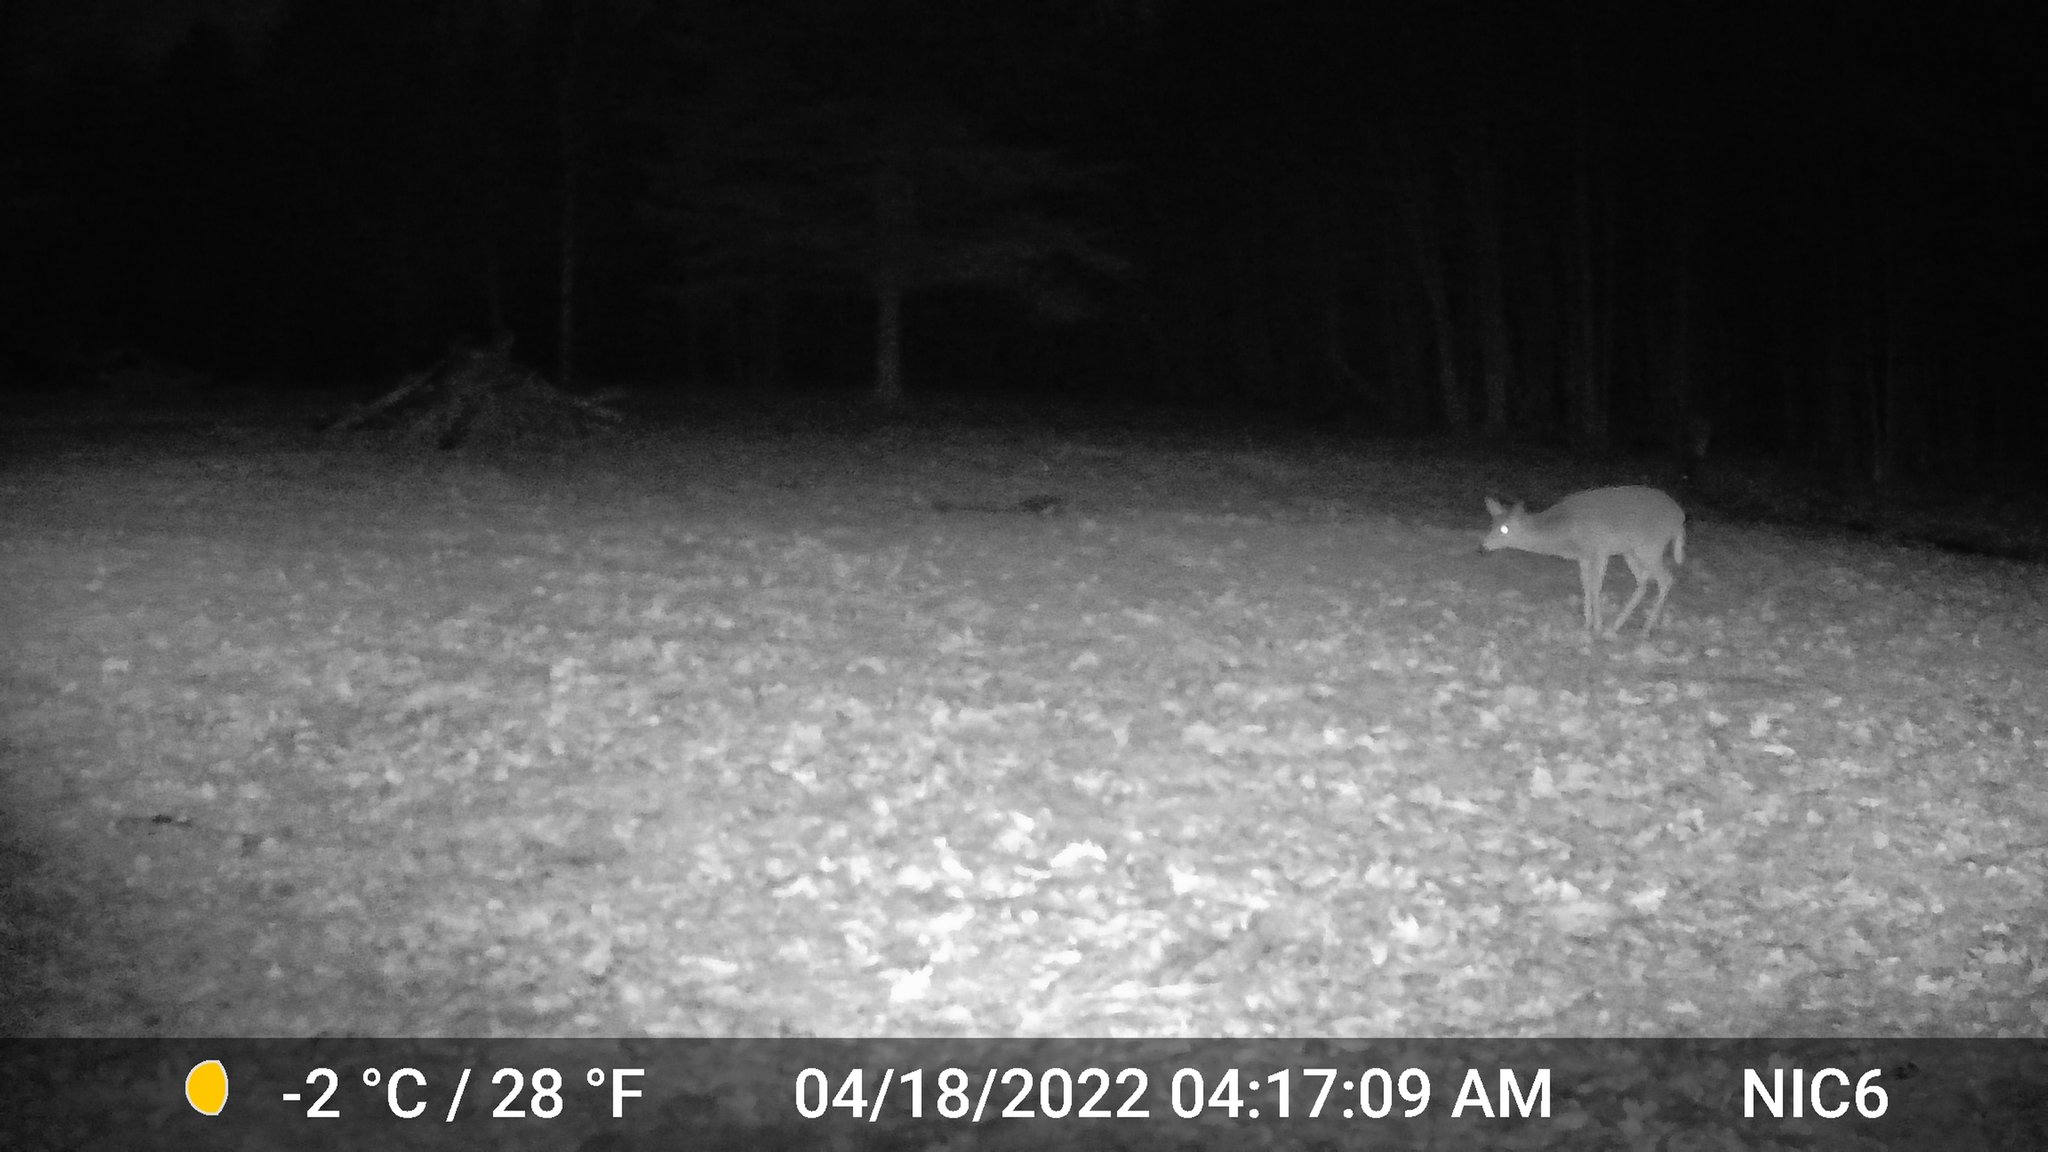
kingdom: Animalia
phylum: Chordata
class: Mammalia
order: Artiodactyla
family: Cervidae
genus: Odocoileus
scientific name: Odocoileus virginianus
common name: White-tailed deer
